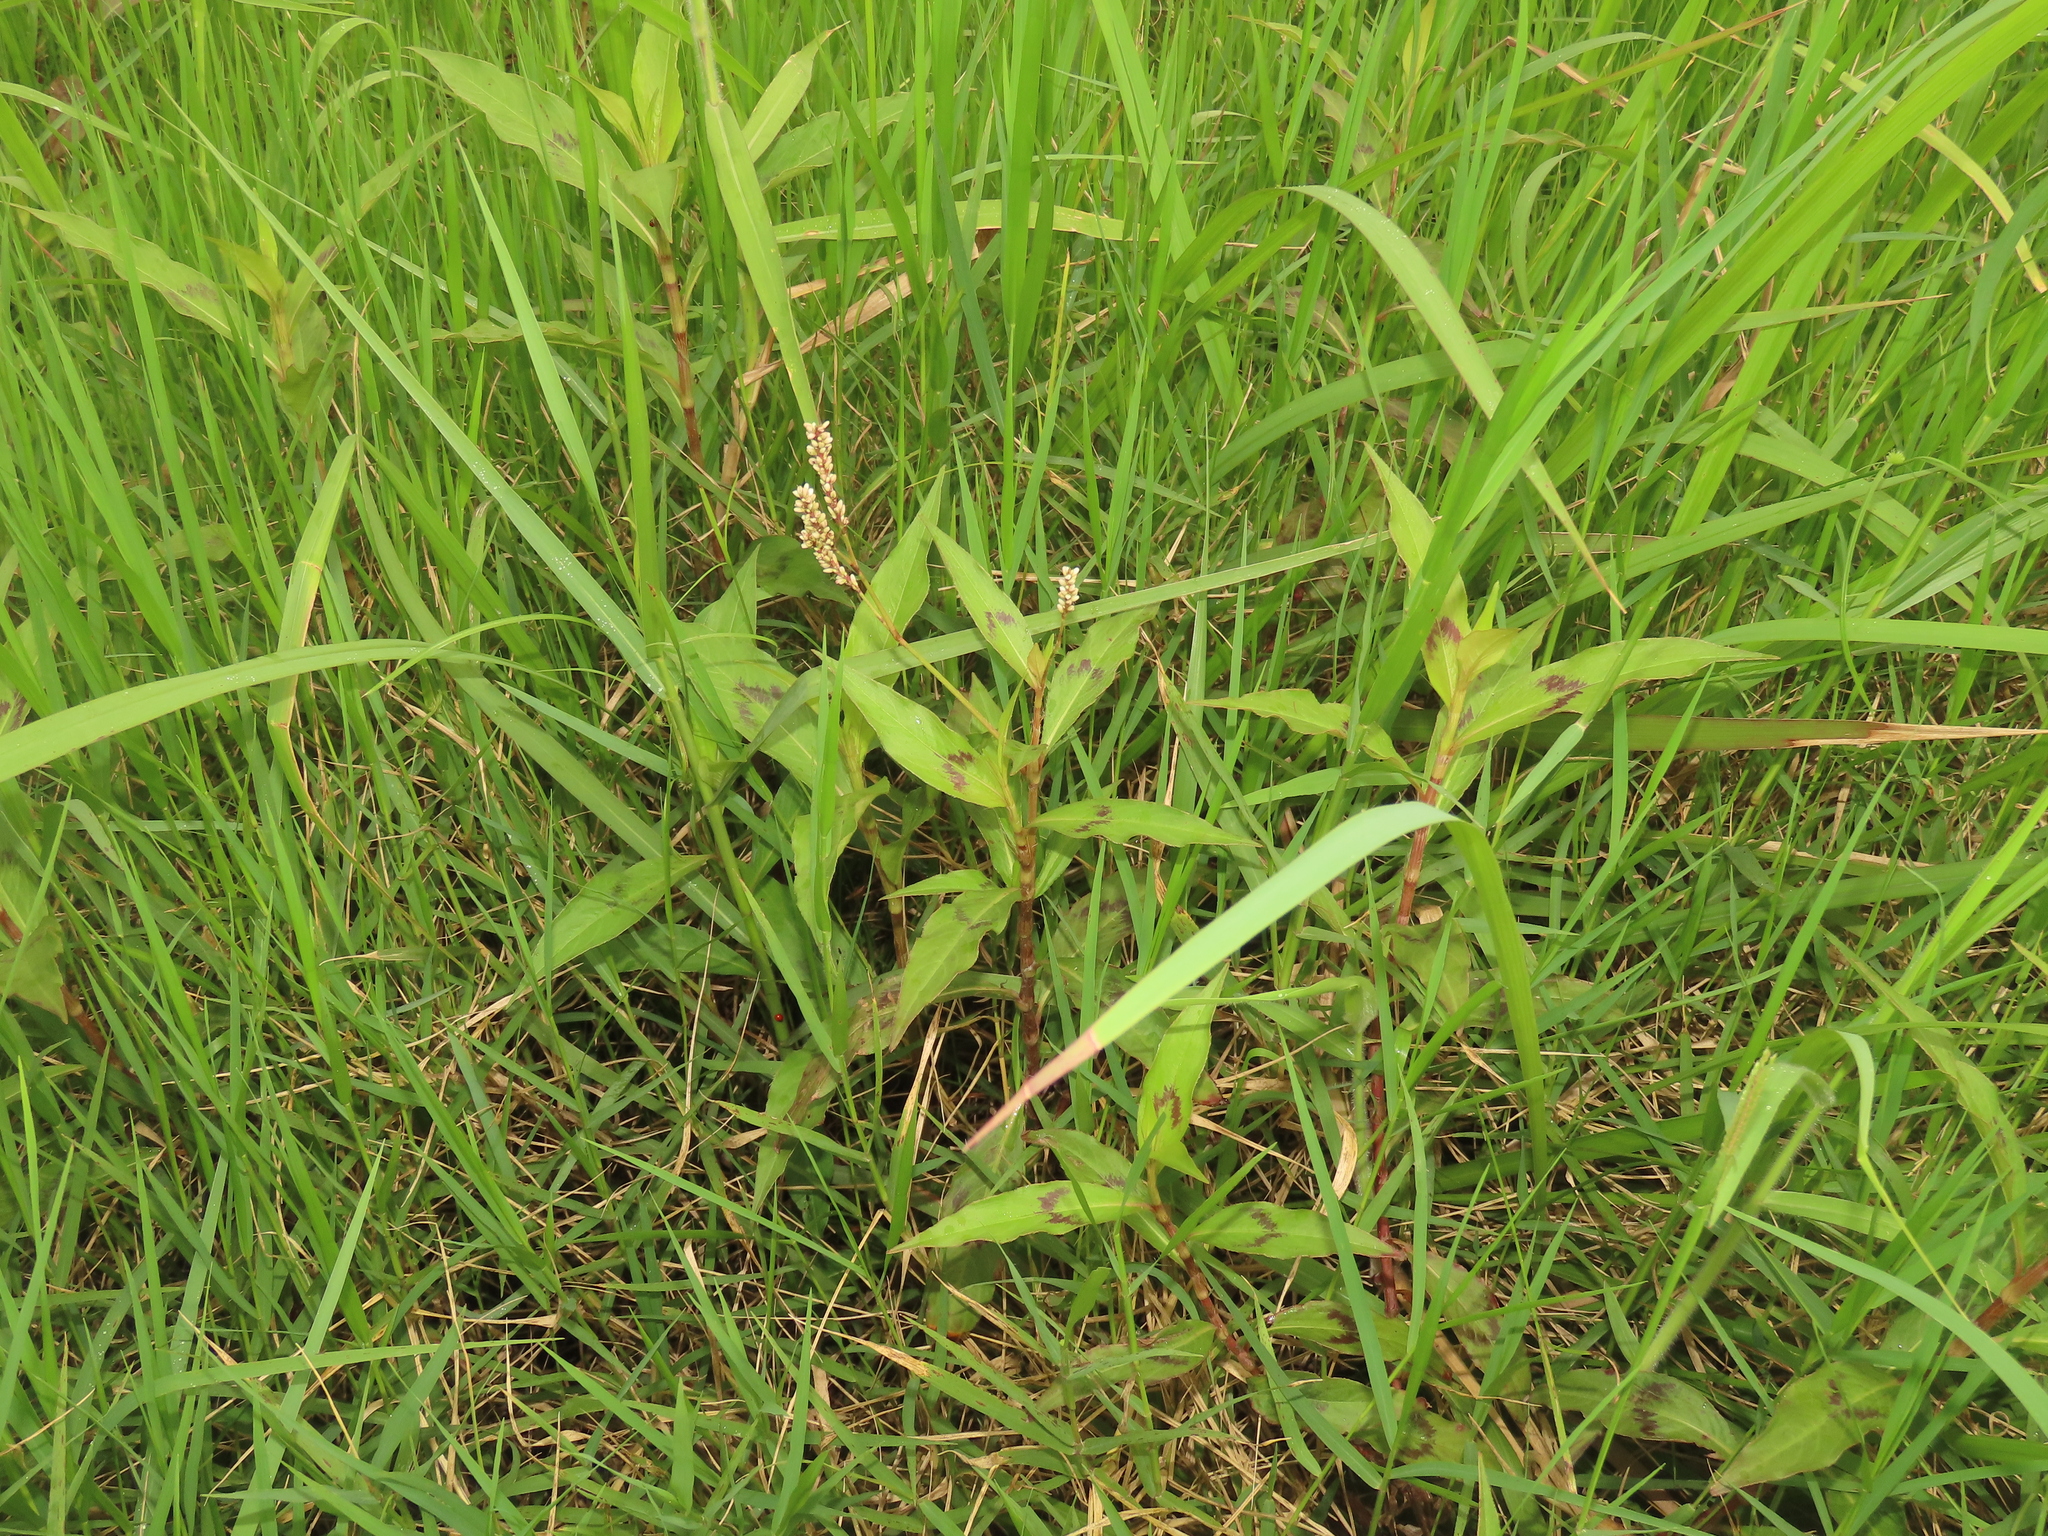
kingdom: Plantae
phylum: Tracheophyta
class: Magnoliopsida
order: Caryophyllales
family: Polygonaceae
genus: Persicaria
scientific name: Persicaria barbata
